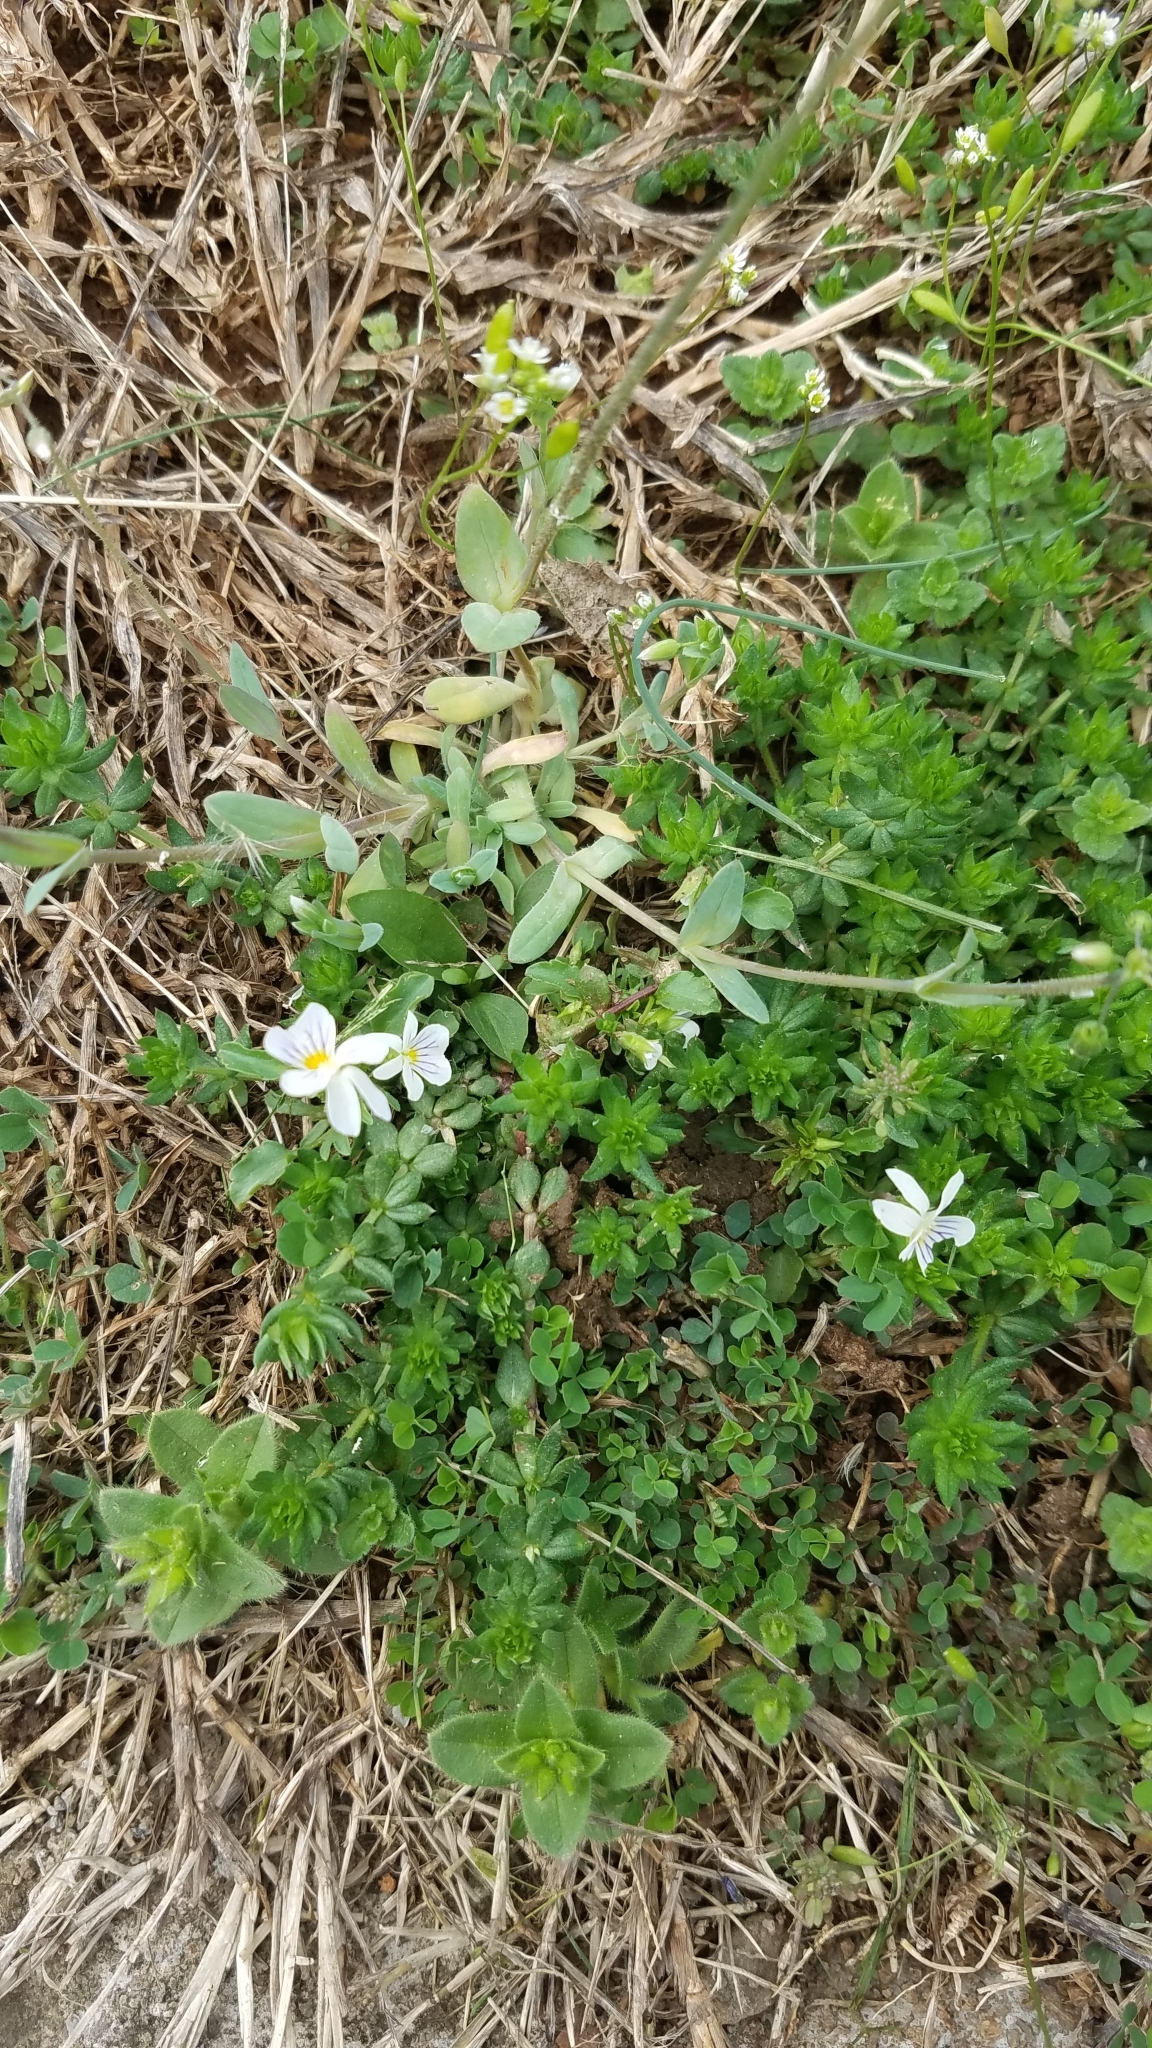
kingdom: Plantae
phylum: Tracheophyta
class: Magnoliopsida
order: Malpighiales
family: Violaceae
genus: Viola
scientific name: Viola rafinesquei
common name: American field pansy
